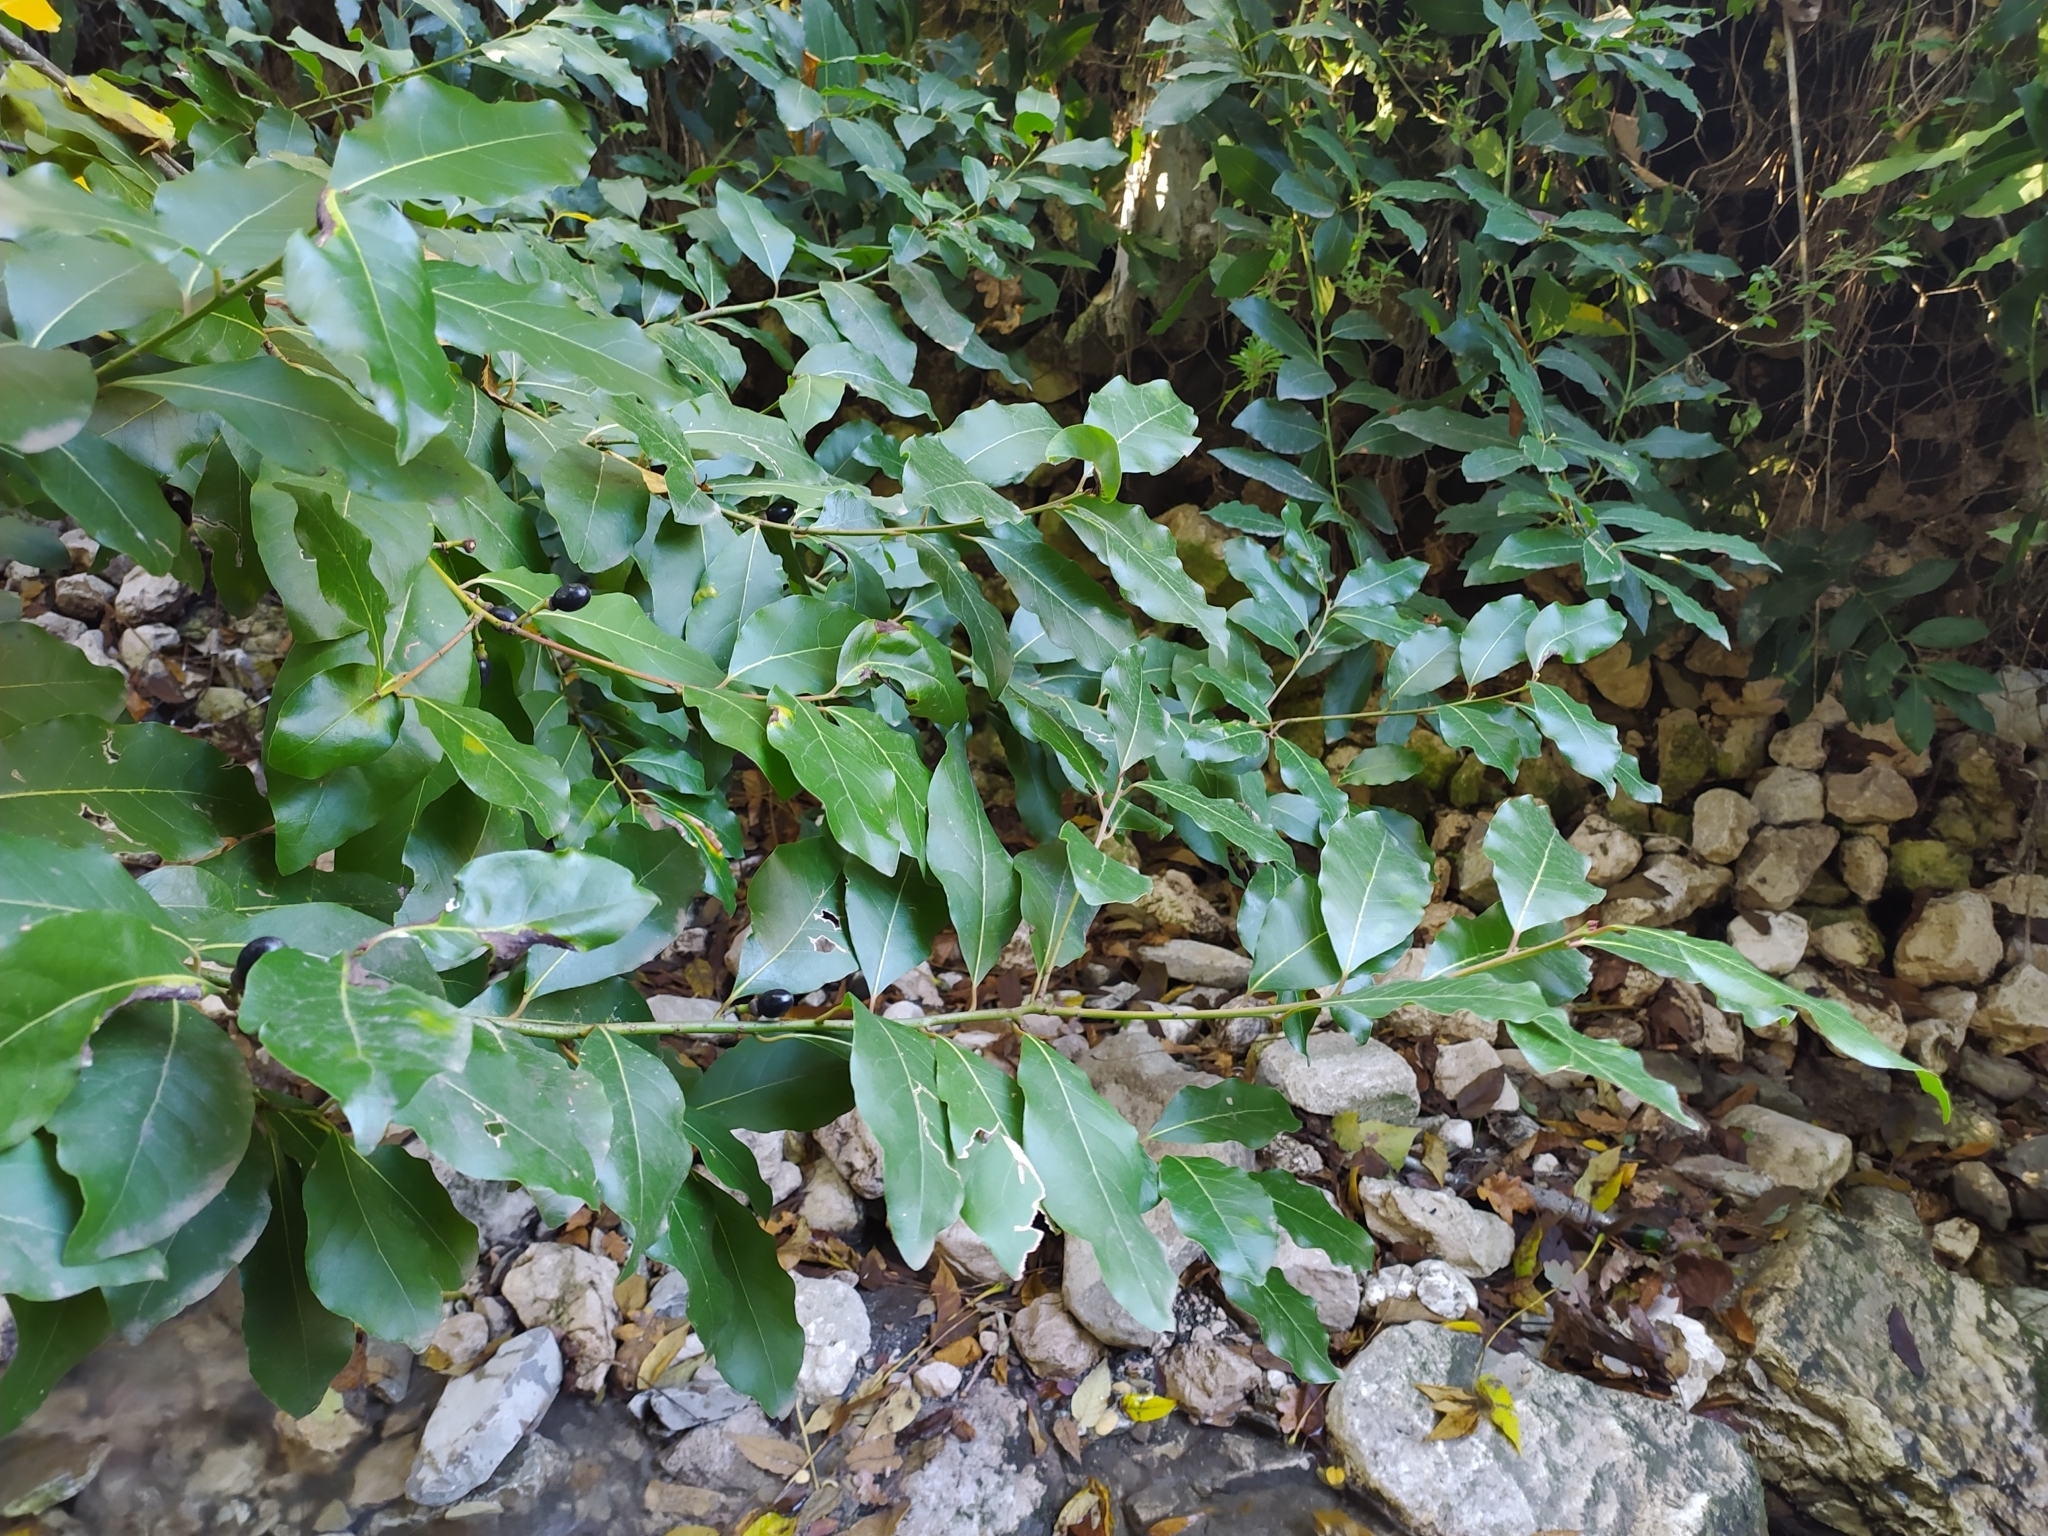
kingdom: Plantae
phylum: Tracheophyta
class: Magnoliopsida
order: Laurales
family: Lauraceae
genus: Laurus
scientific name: Laurus nobilis
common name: Bay
